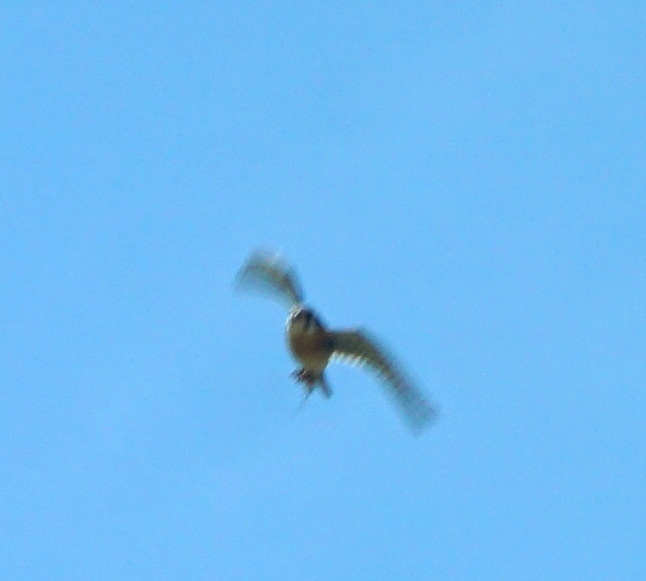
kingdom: Animalia
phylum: Chordata
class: Aves
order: Falconiformes
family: Falconidae
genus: Falco
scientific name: Falco sparverius
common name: American kestrel
